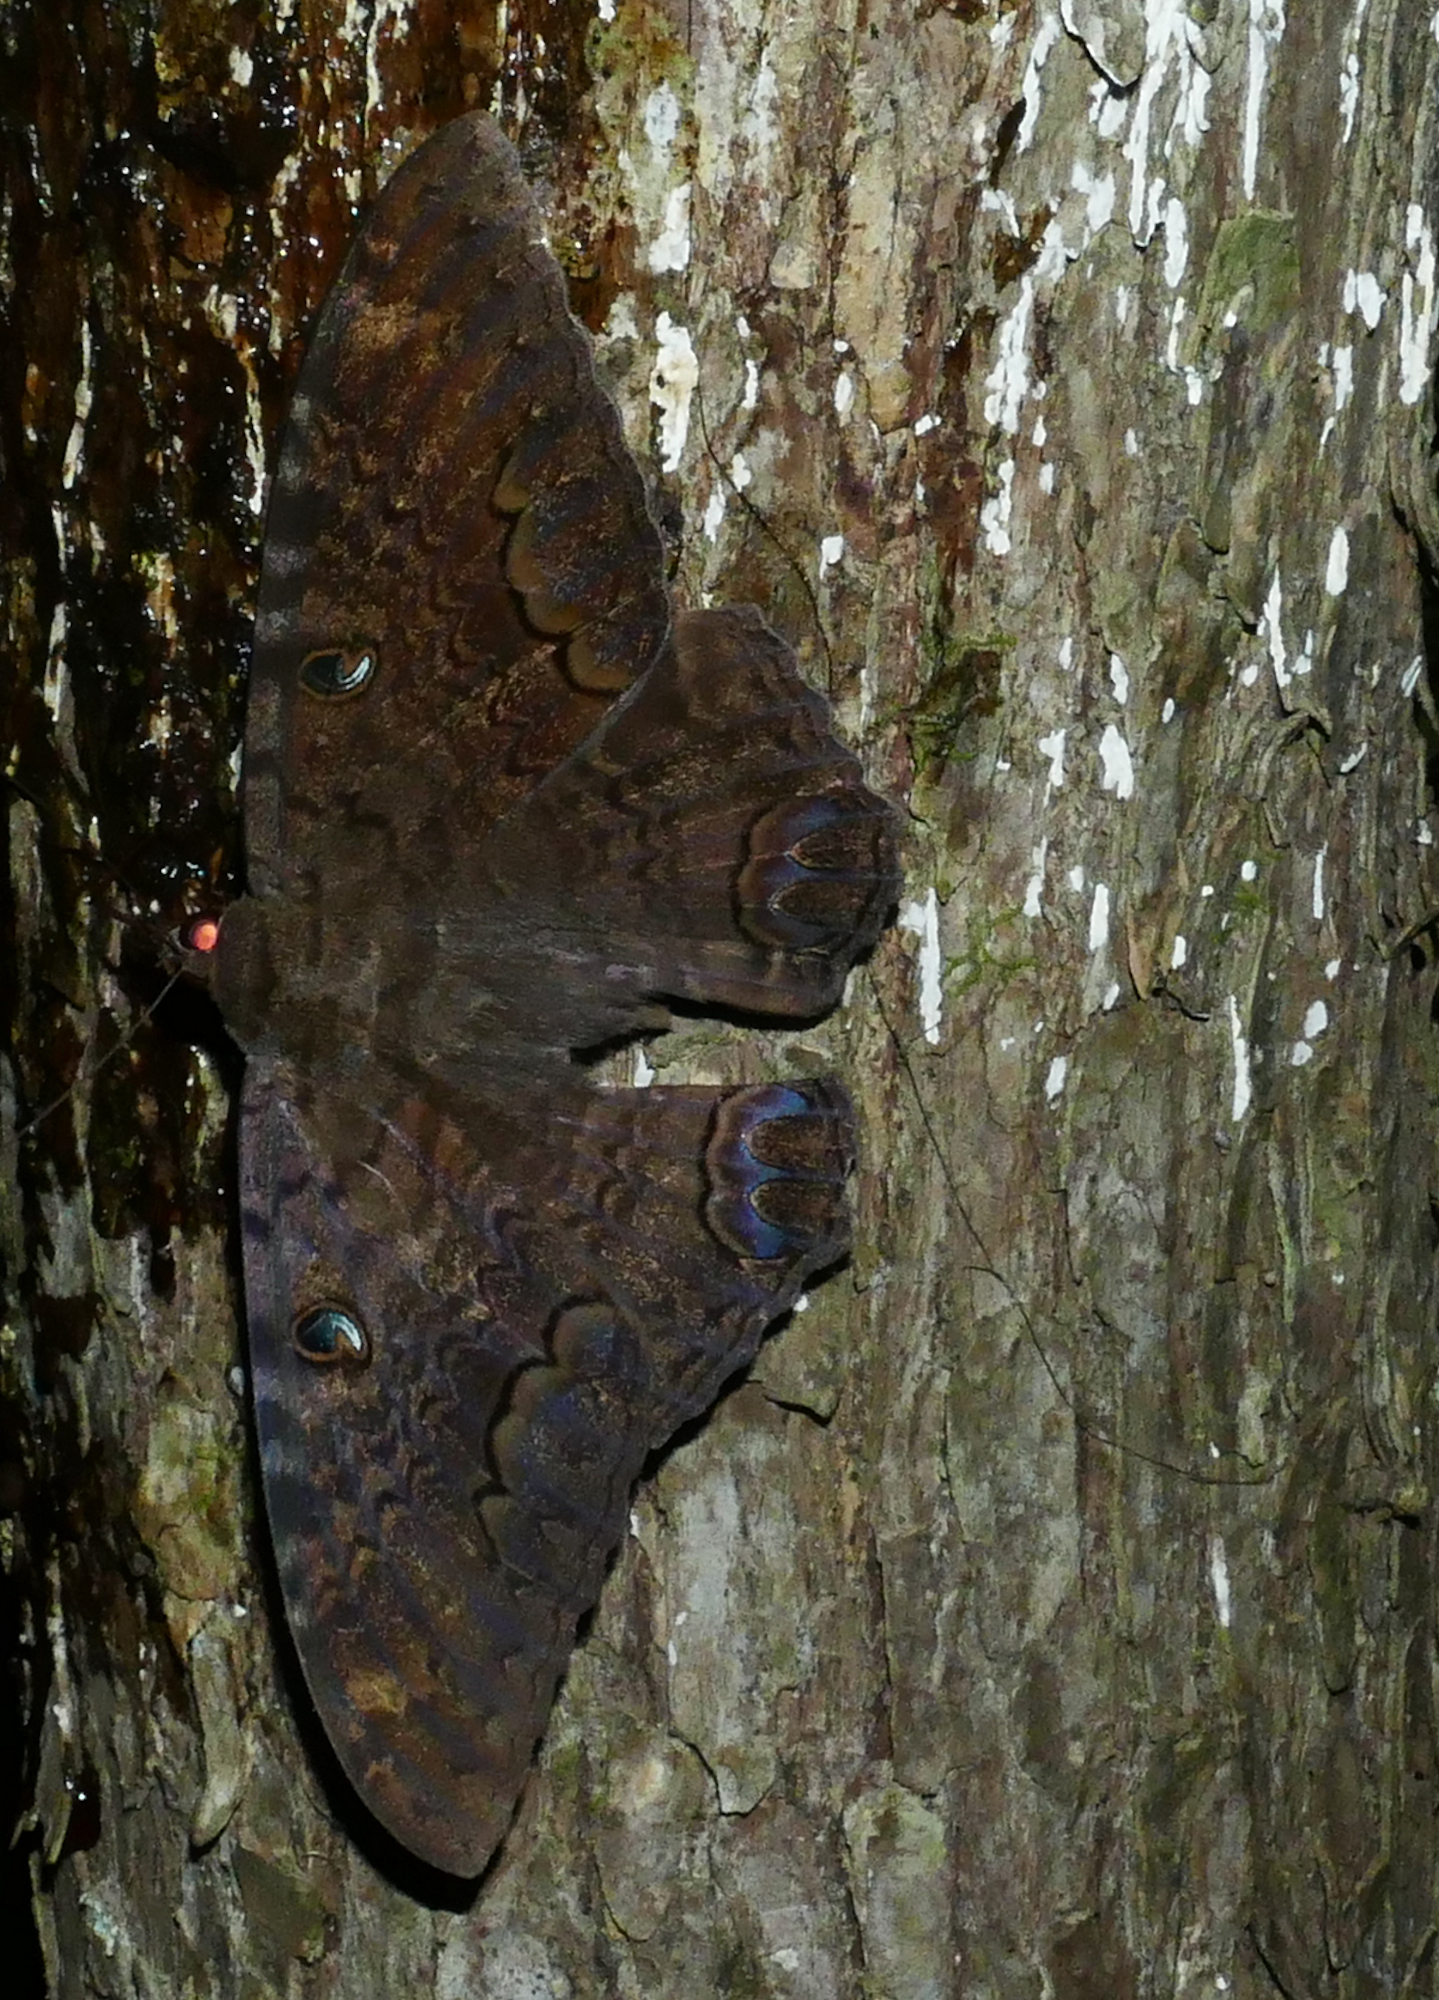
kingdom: Animalia
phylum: Arthropoda
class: Insecta
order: Lepidoptera
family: Erebidae
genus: Ascalapha
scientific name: Ascalapha odorata
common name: Black witch
